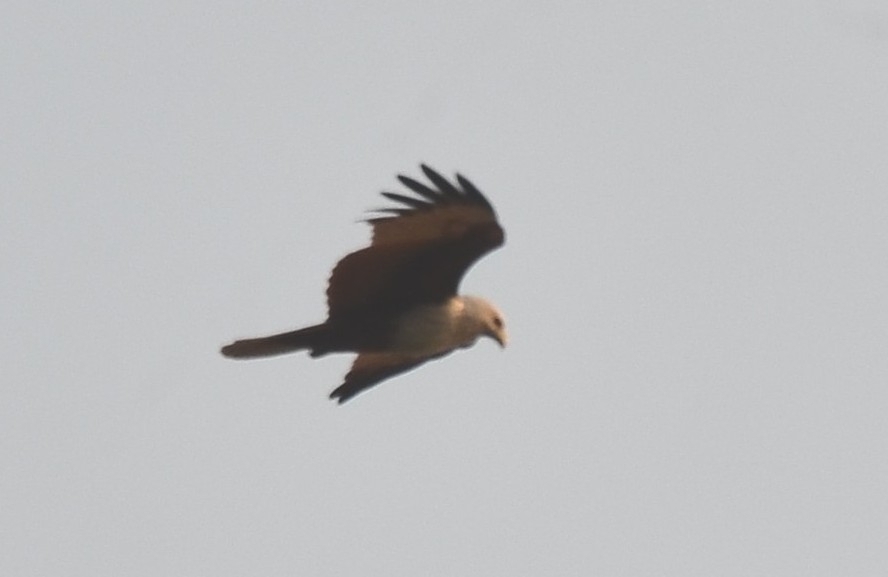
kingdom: Animalia
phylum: Chordata
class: Aves
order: Accipitriformes
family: Accipitridae
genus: Haliastur
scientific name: Haliastur indus
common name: Brahminy kite
